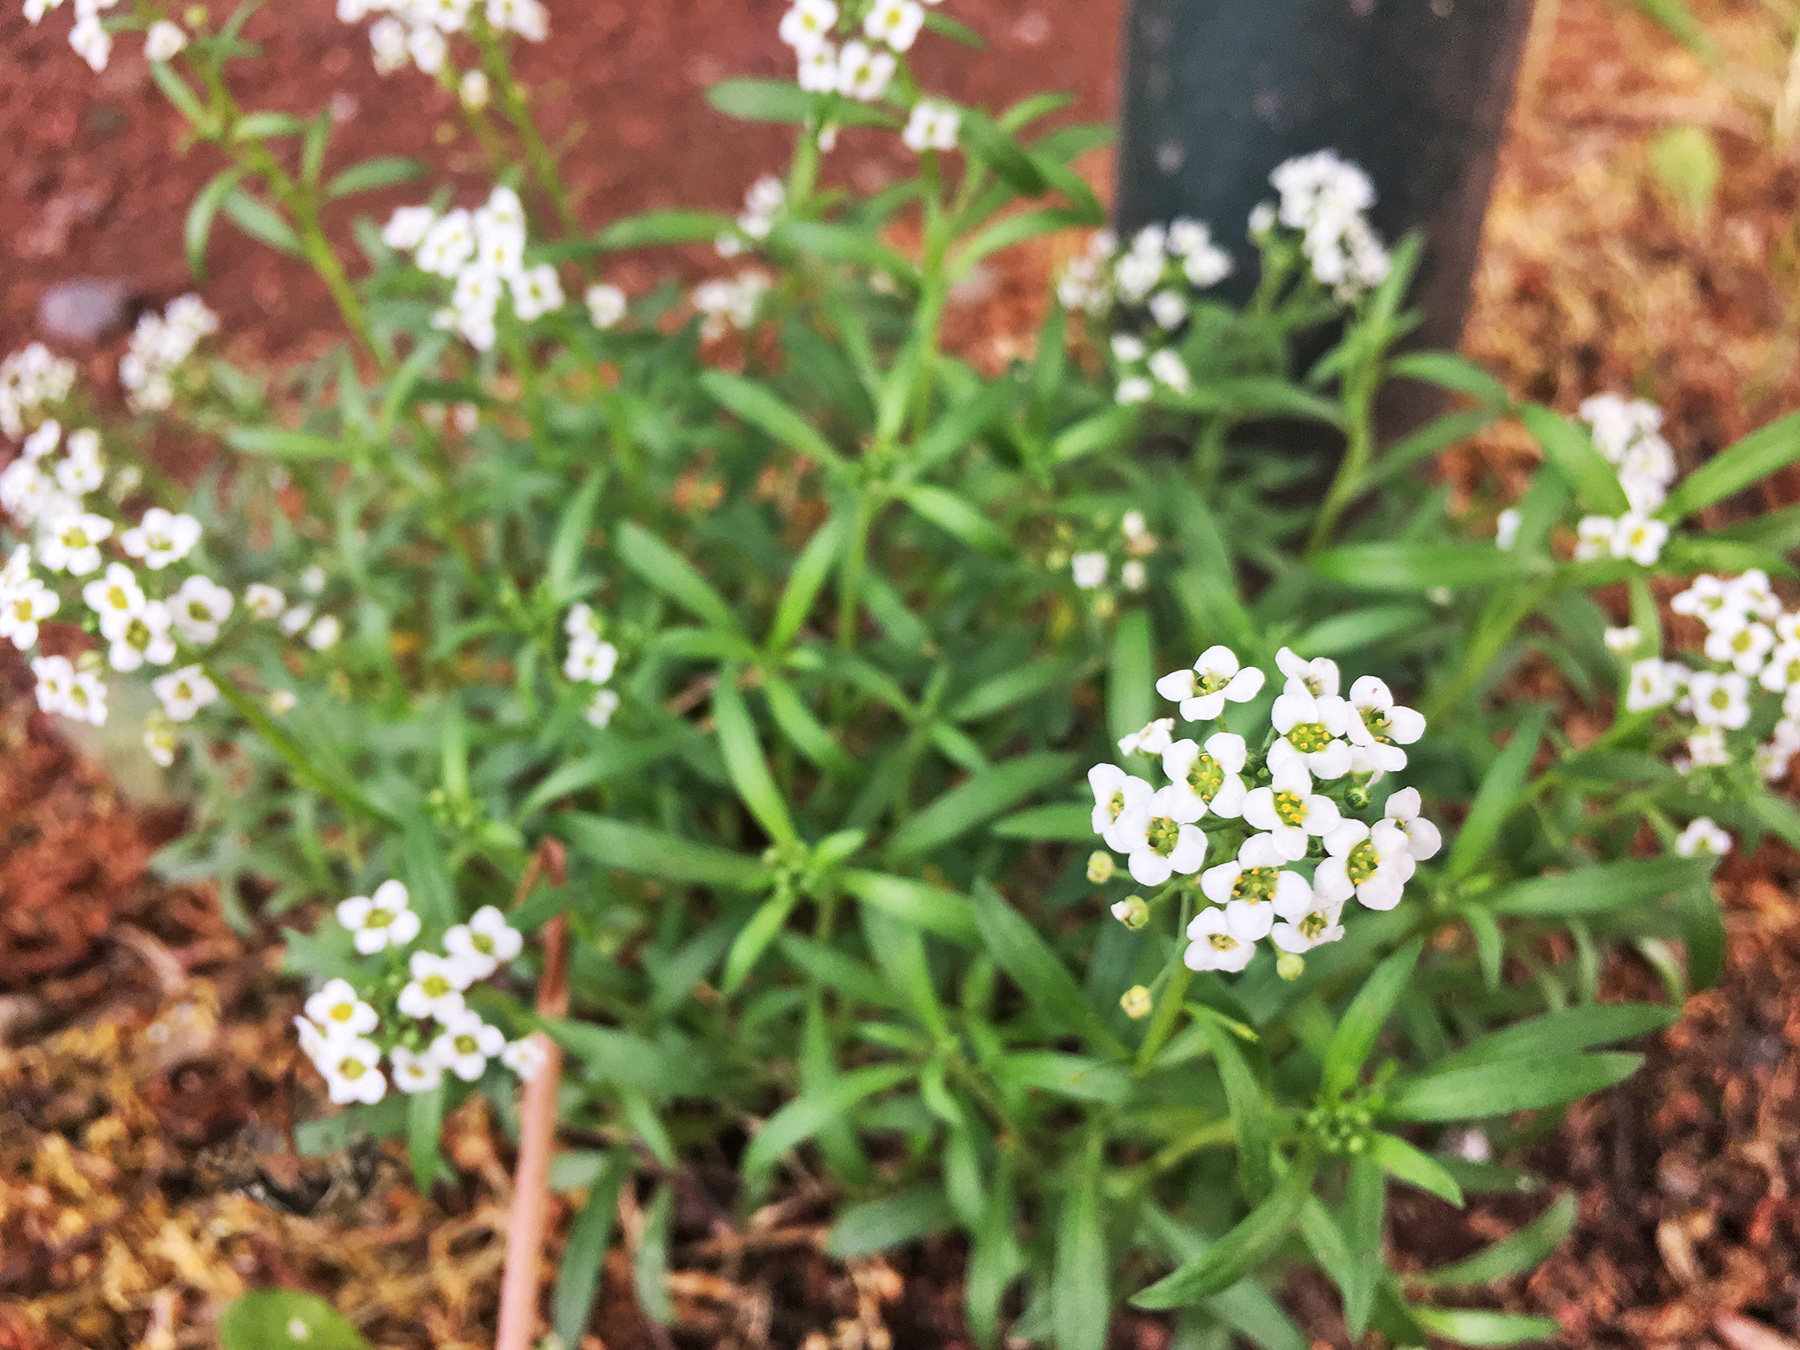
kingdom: Plantae
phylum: Tracheophyta
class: Magnoliopsida
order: Brassicales
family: Brassicaceae
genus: Lobularia
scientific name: Lobularia maritima
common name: Sweet alison
